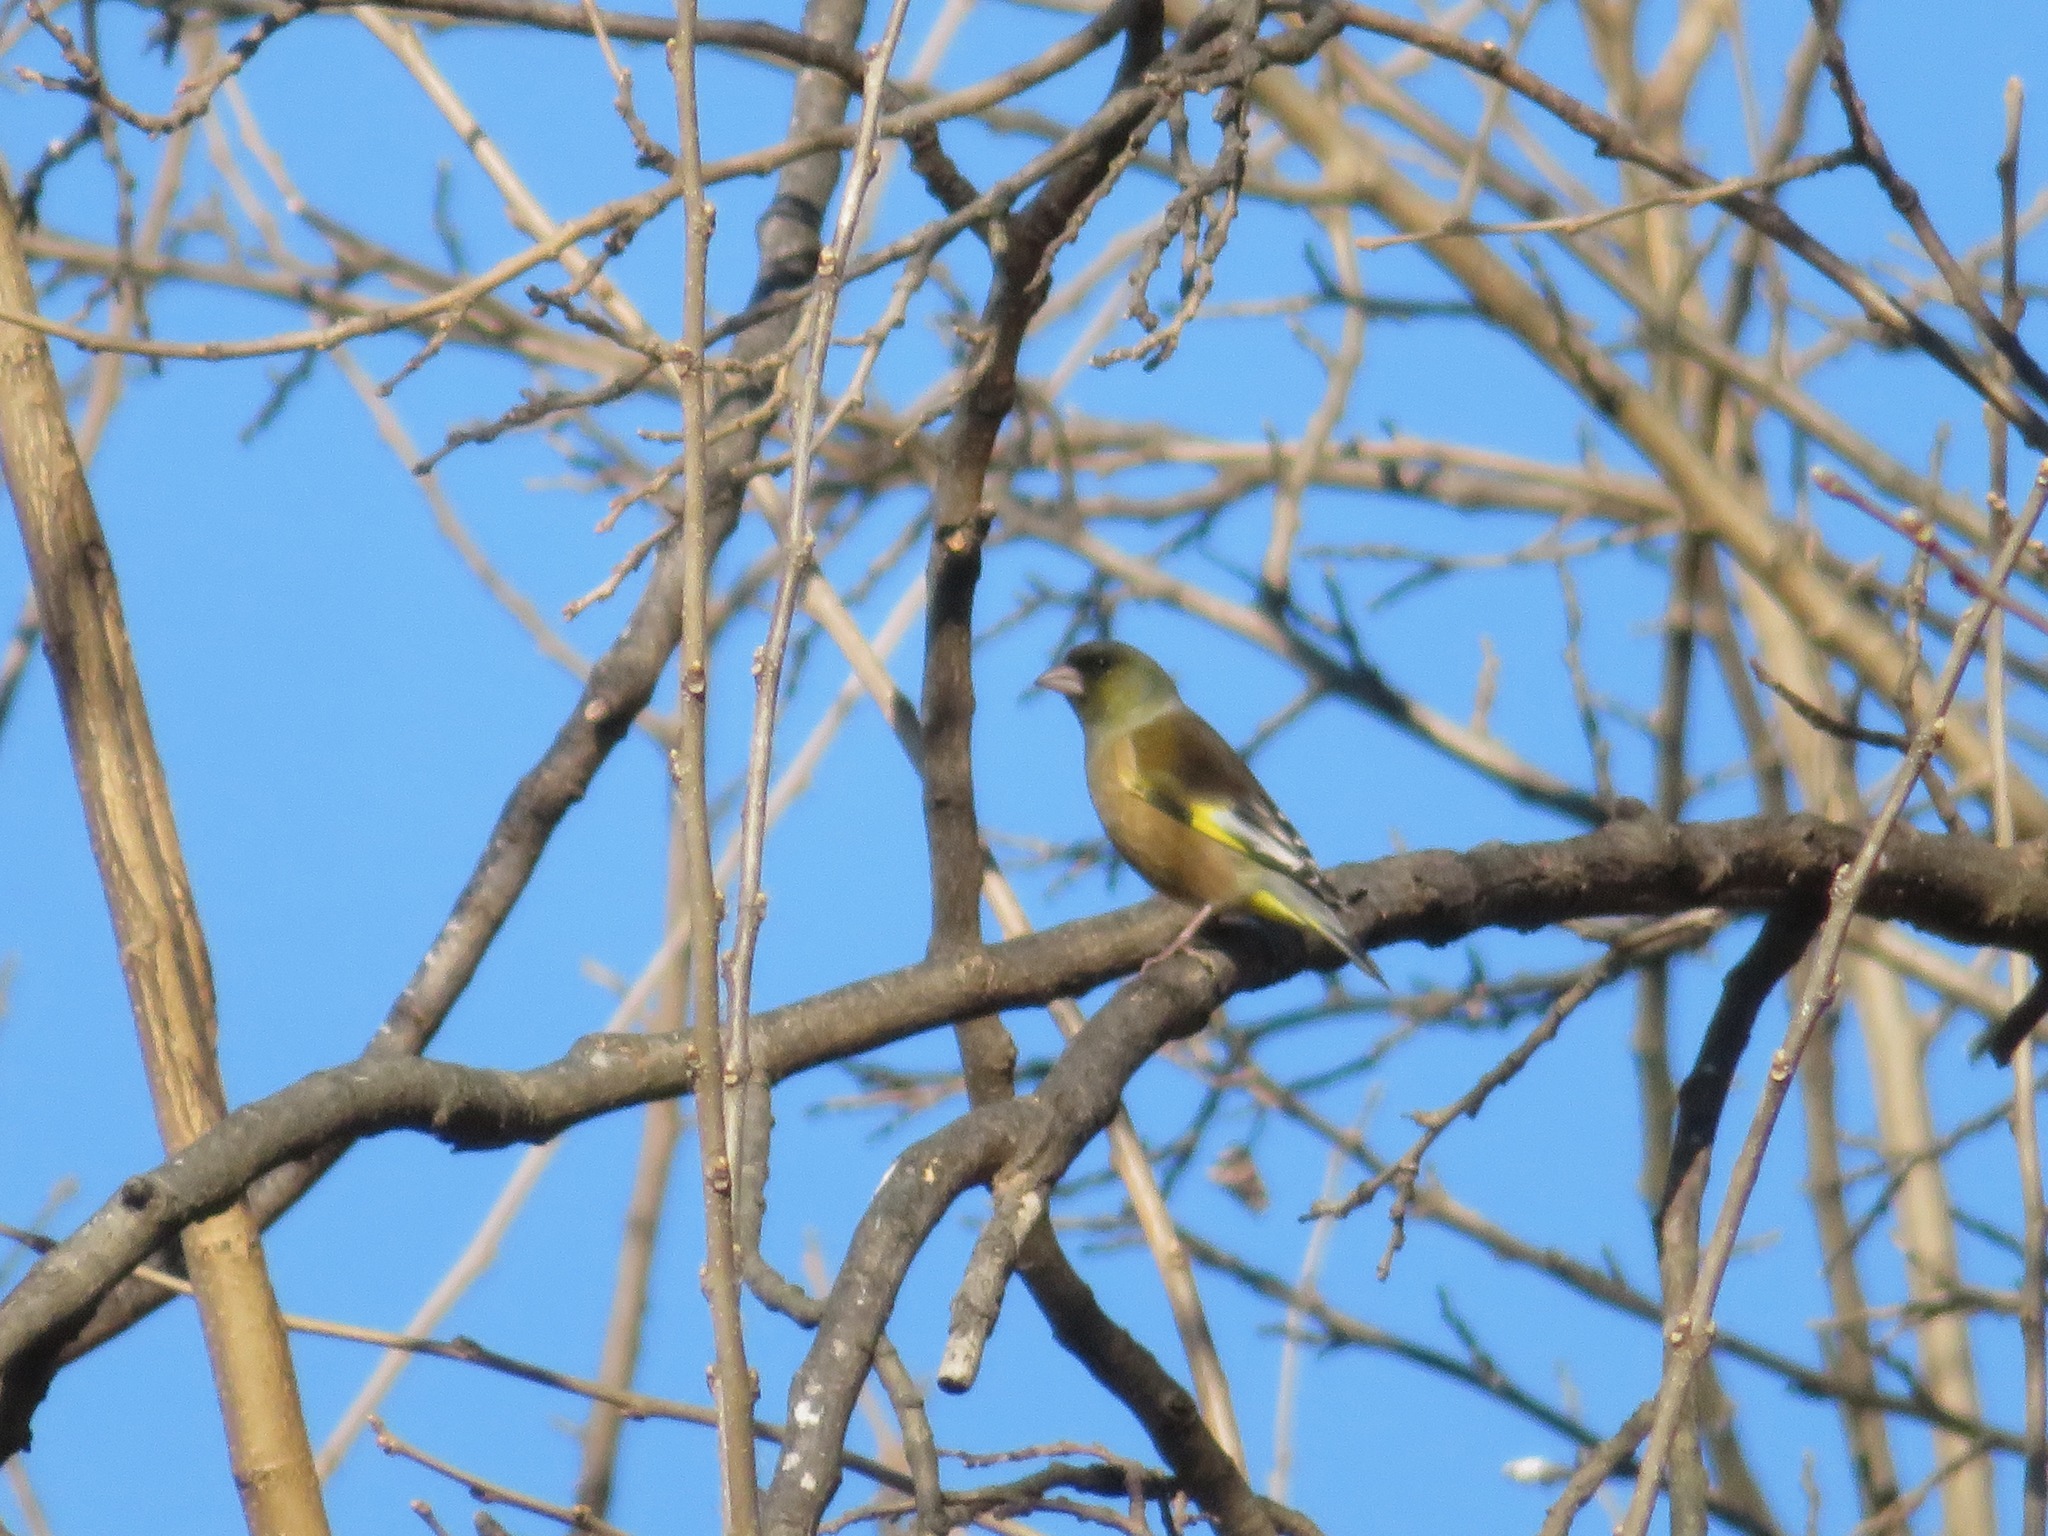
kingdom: Plantae
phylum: Tracheophyta
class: Liliopsida
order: Poales
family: Poaceae
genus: Chloris
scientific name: Chloris sinica
